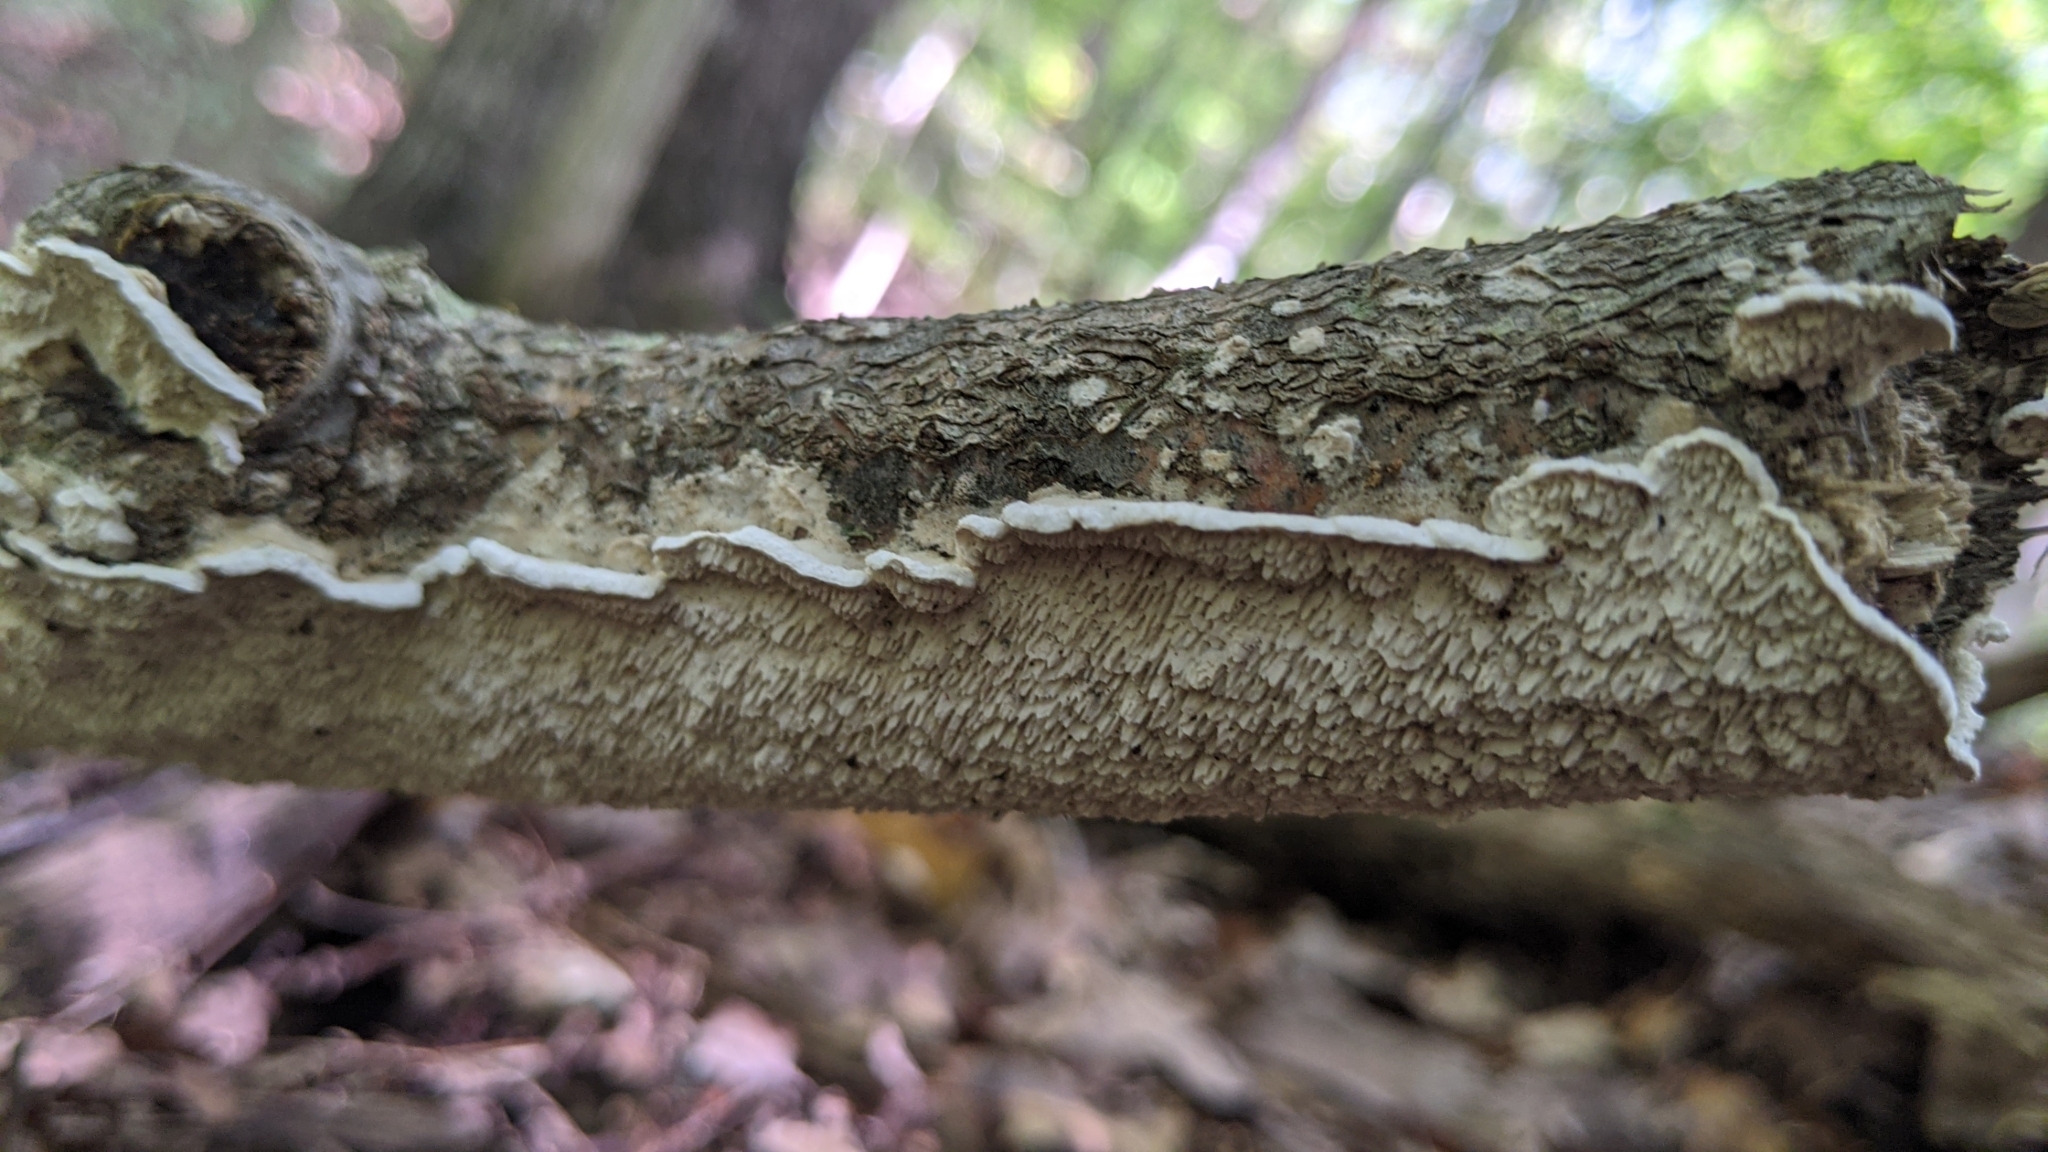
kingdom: Fungi
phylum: Basidiomycota
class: Agaricomycetes
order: Polyporales
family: Irpicaceae
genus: Irpex
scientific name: Irpex lacteus
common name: Milk-white toothed polypore
